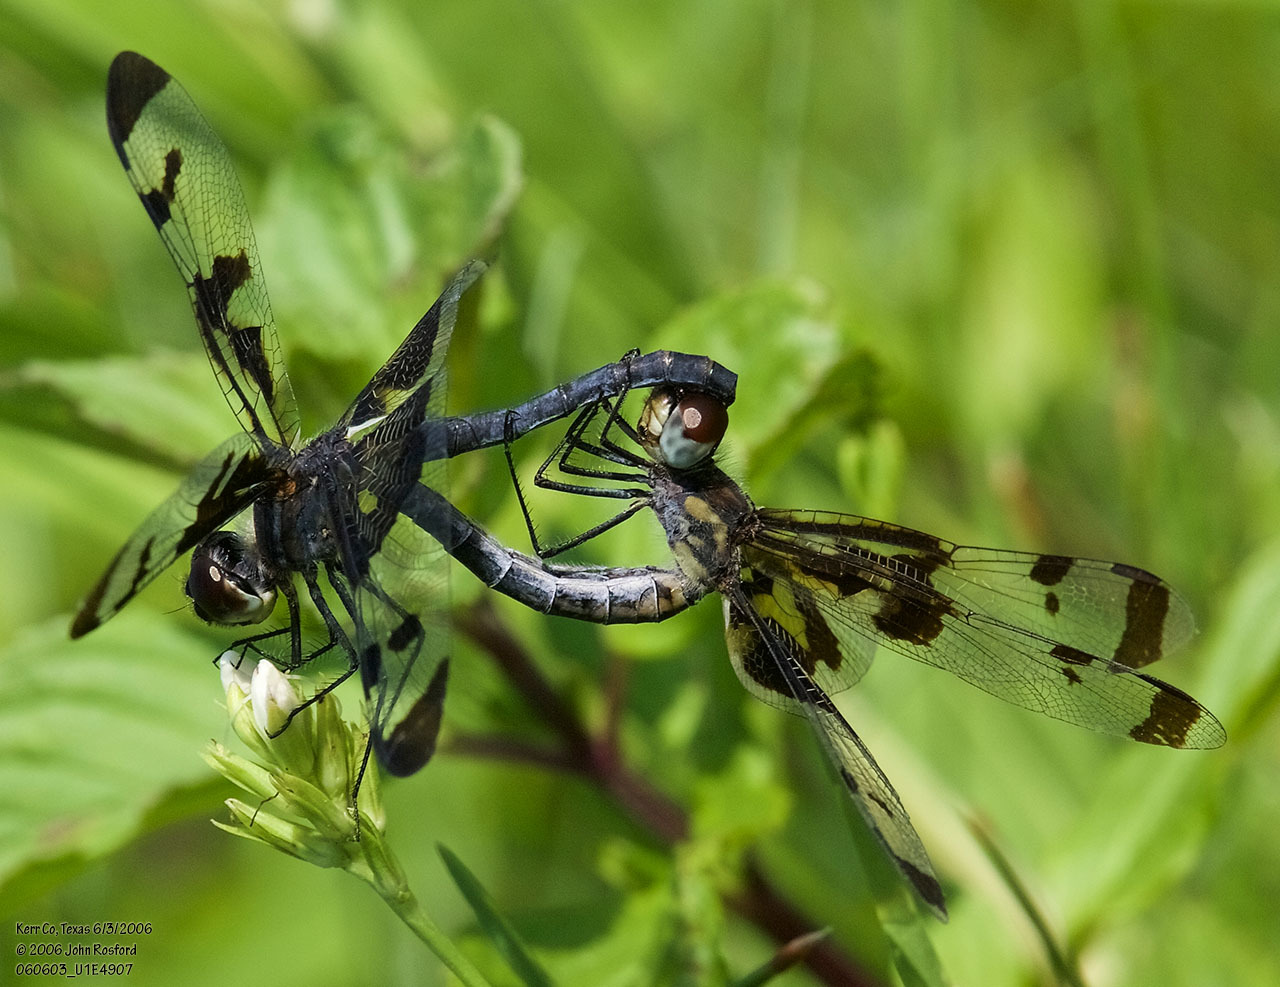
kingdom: Animalia
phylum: Arthropoda
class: Insecta
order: Odonata
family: Libellulidae
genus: Celithemis
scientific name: Celithemis fasciata
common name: Banded pennant
